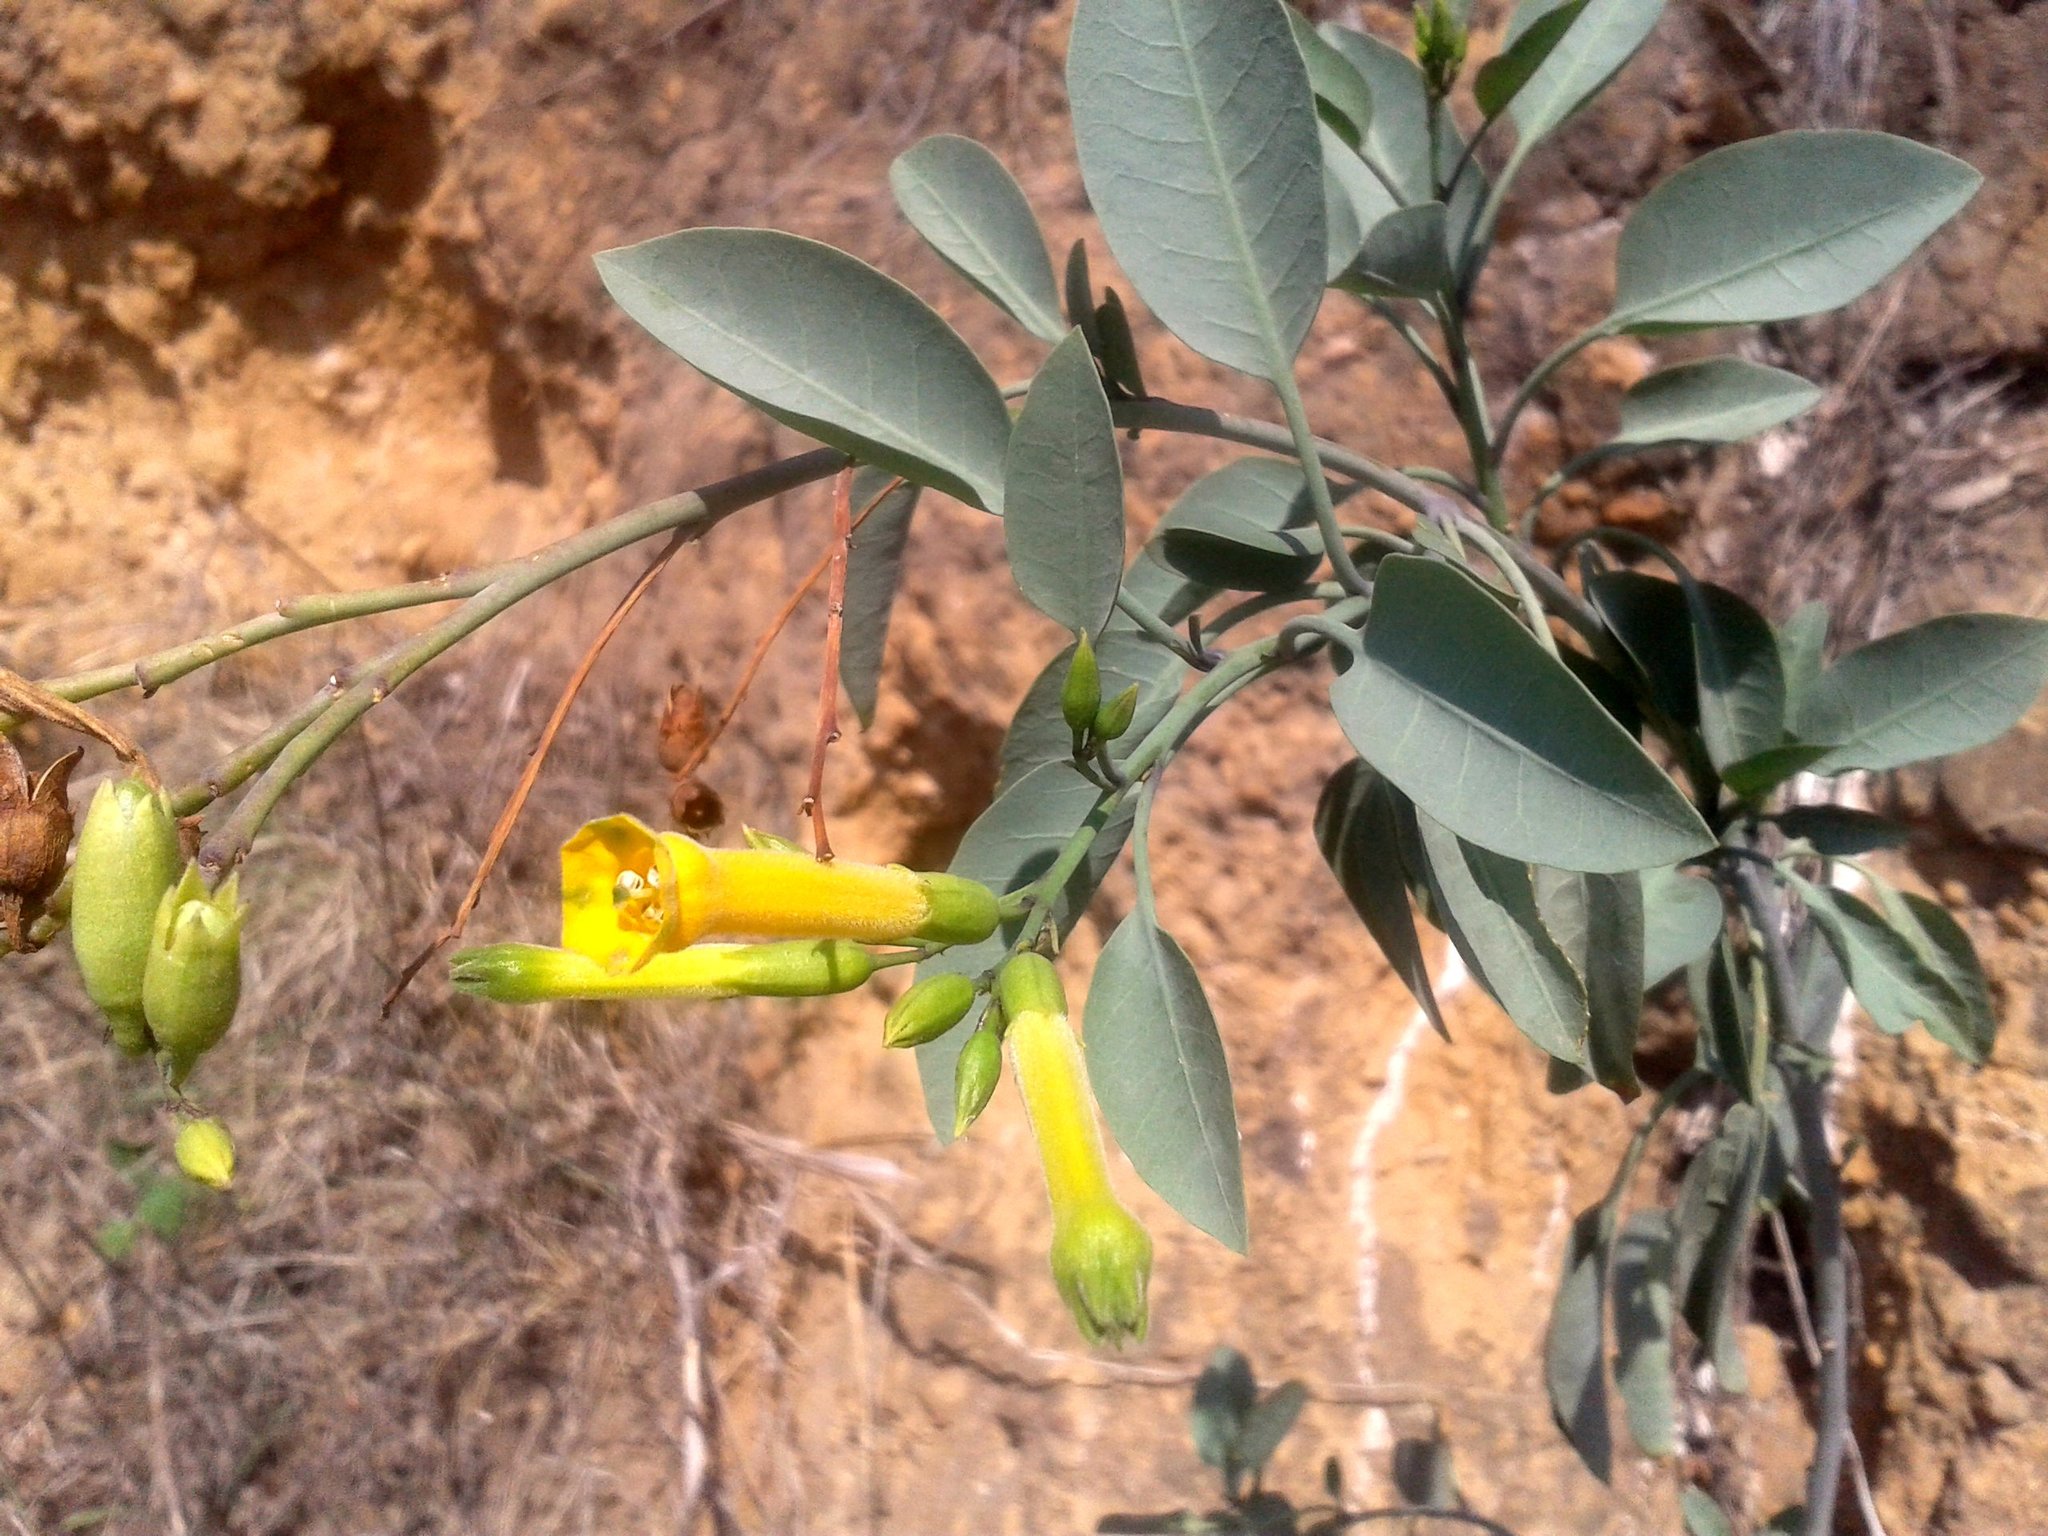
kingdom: Plantae
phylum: Tracheophyta
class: Magnoliopsida
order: Solanales
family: Solanaceae
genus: Nicotiana
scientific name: Nicotiana glauca
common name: Tree tobacco
